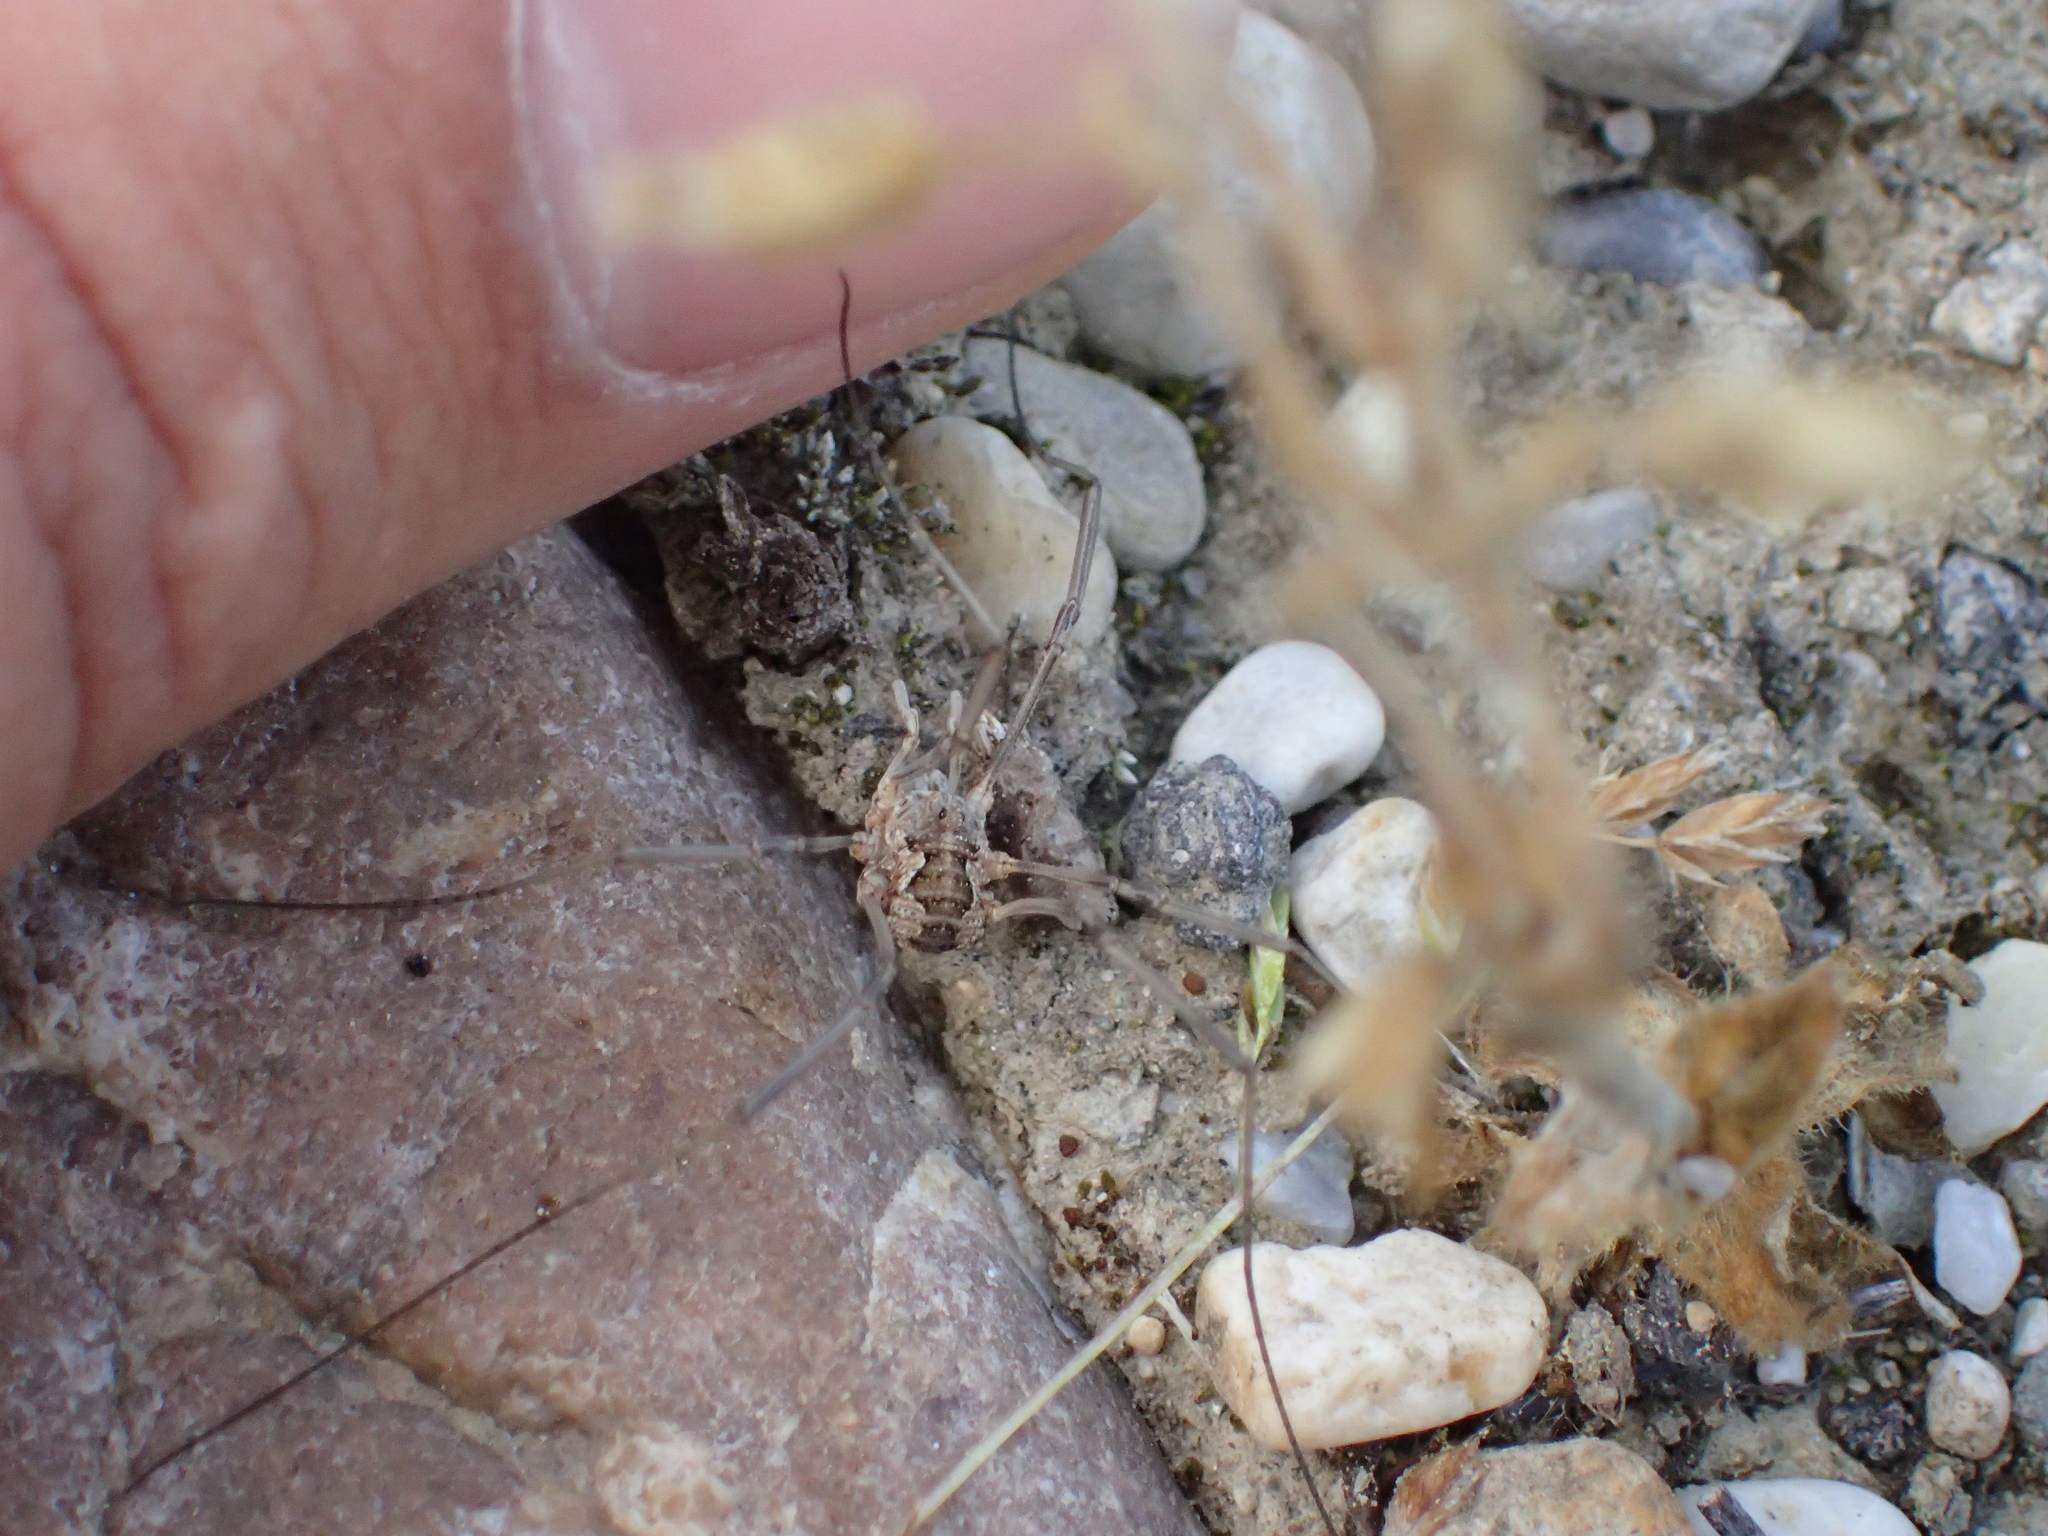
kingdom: Animalia
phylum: Arthropoda
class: Arachnida
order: Opiliones
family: Phalangiidae
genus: Phalangium
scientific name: Phalangium opilio
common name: Daddy longleg
